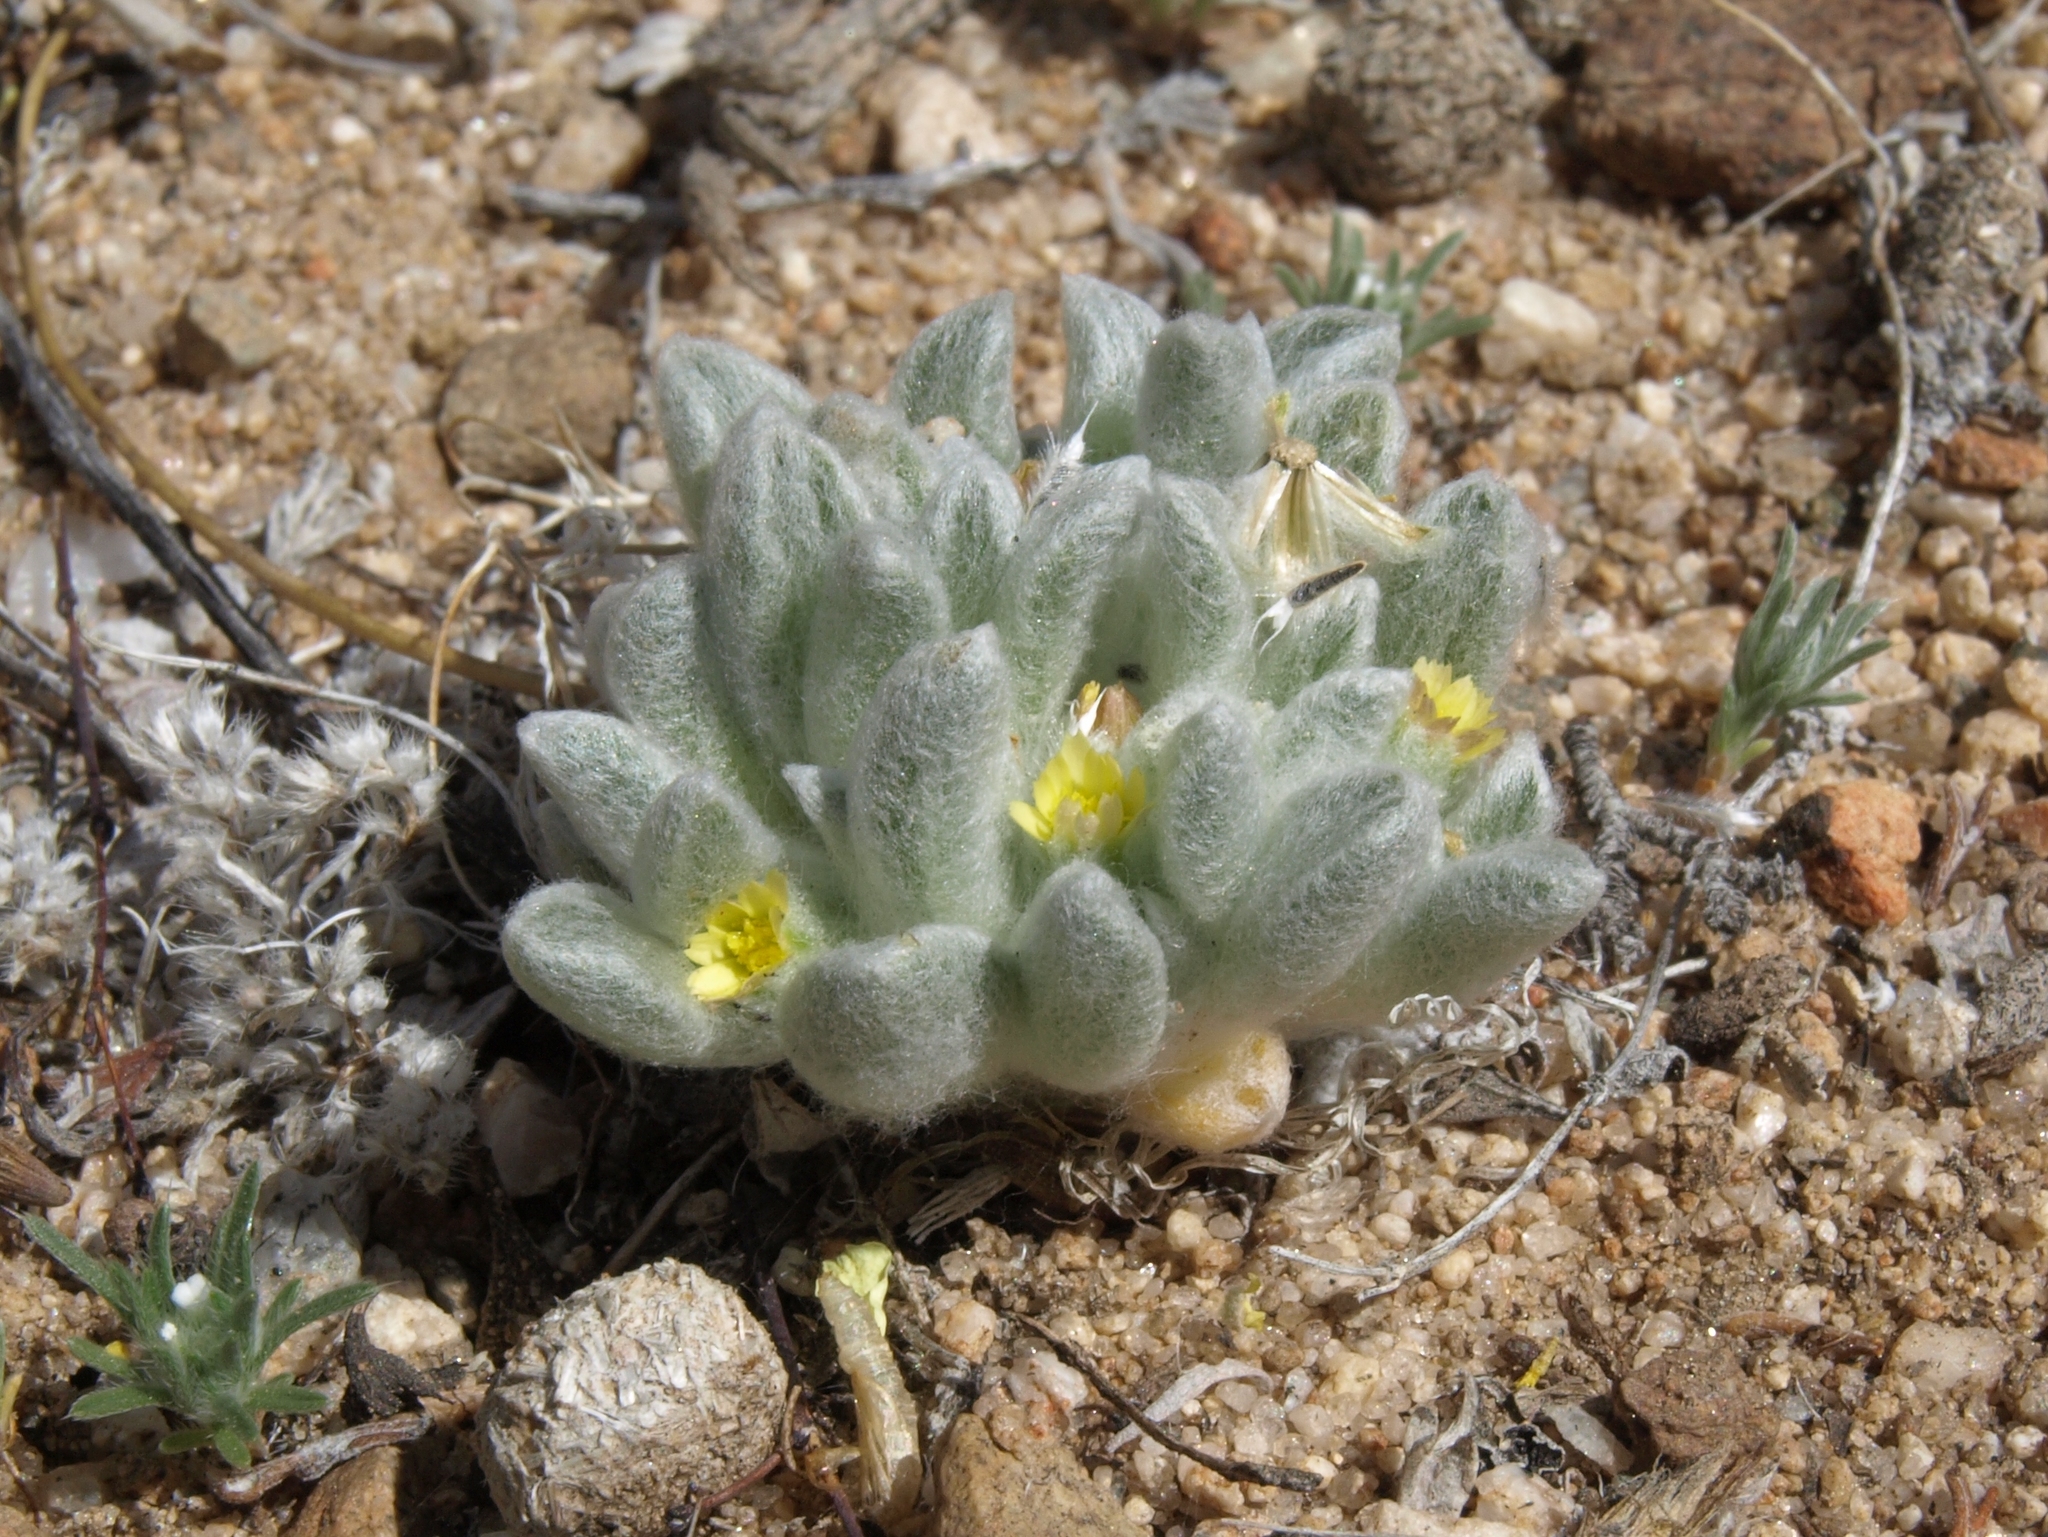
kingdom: Plantae
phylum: Tracheophyta
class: Magnoliopsida
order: Asterales
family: Asteraceae
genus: Eatonella
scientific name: Eatonella nivea
